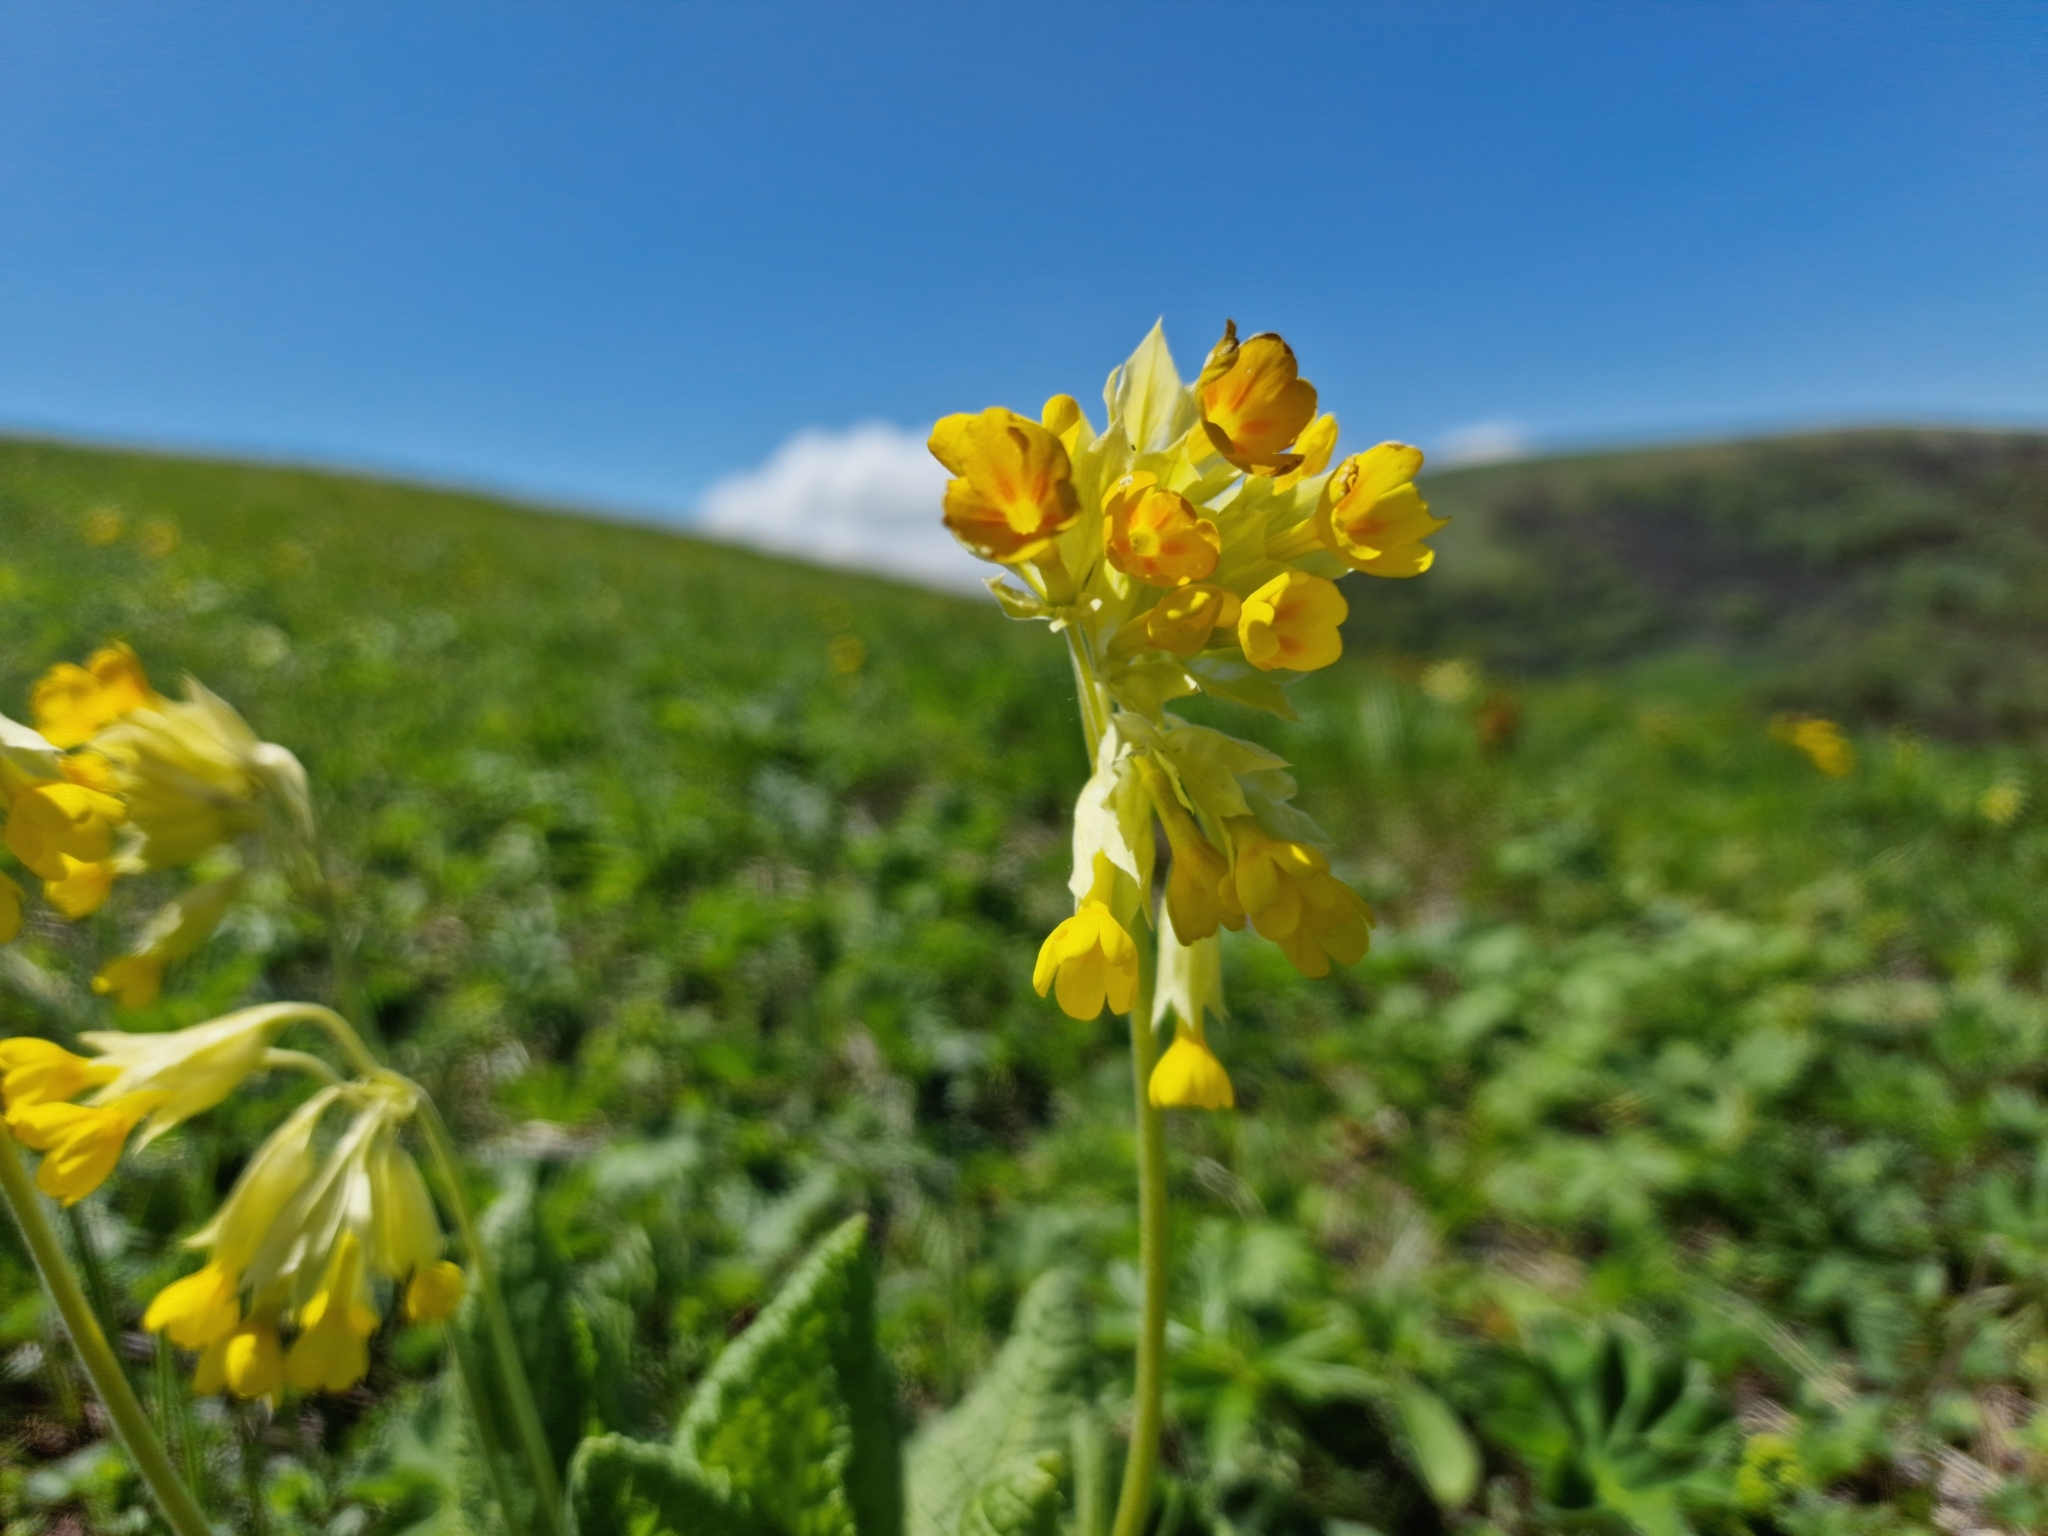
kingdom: Plantae
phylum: Tracheophyta
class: Magnoliopsida
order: Ericales
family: Primulaceae
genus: Primula
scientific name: Primula veris
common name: Cowslip
